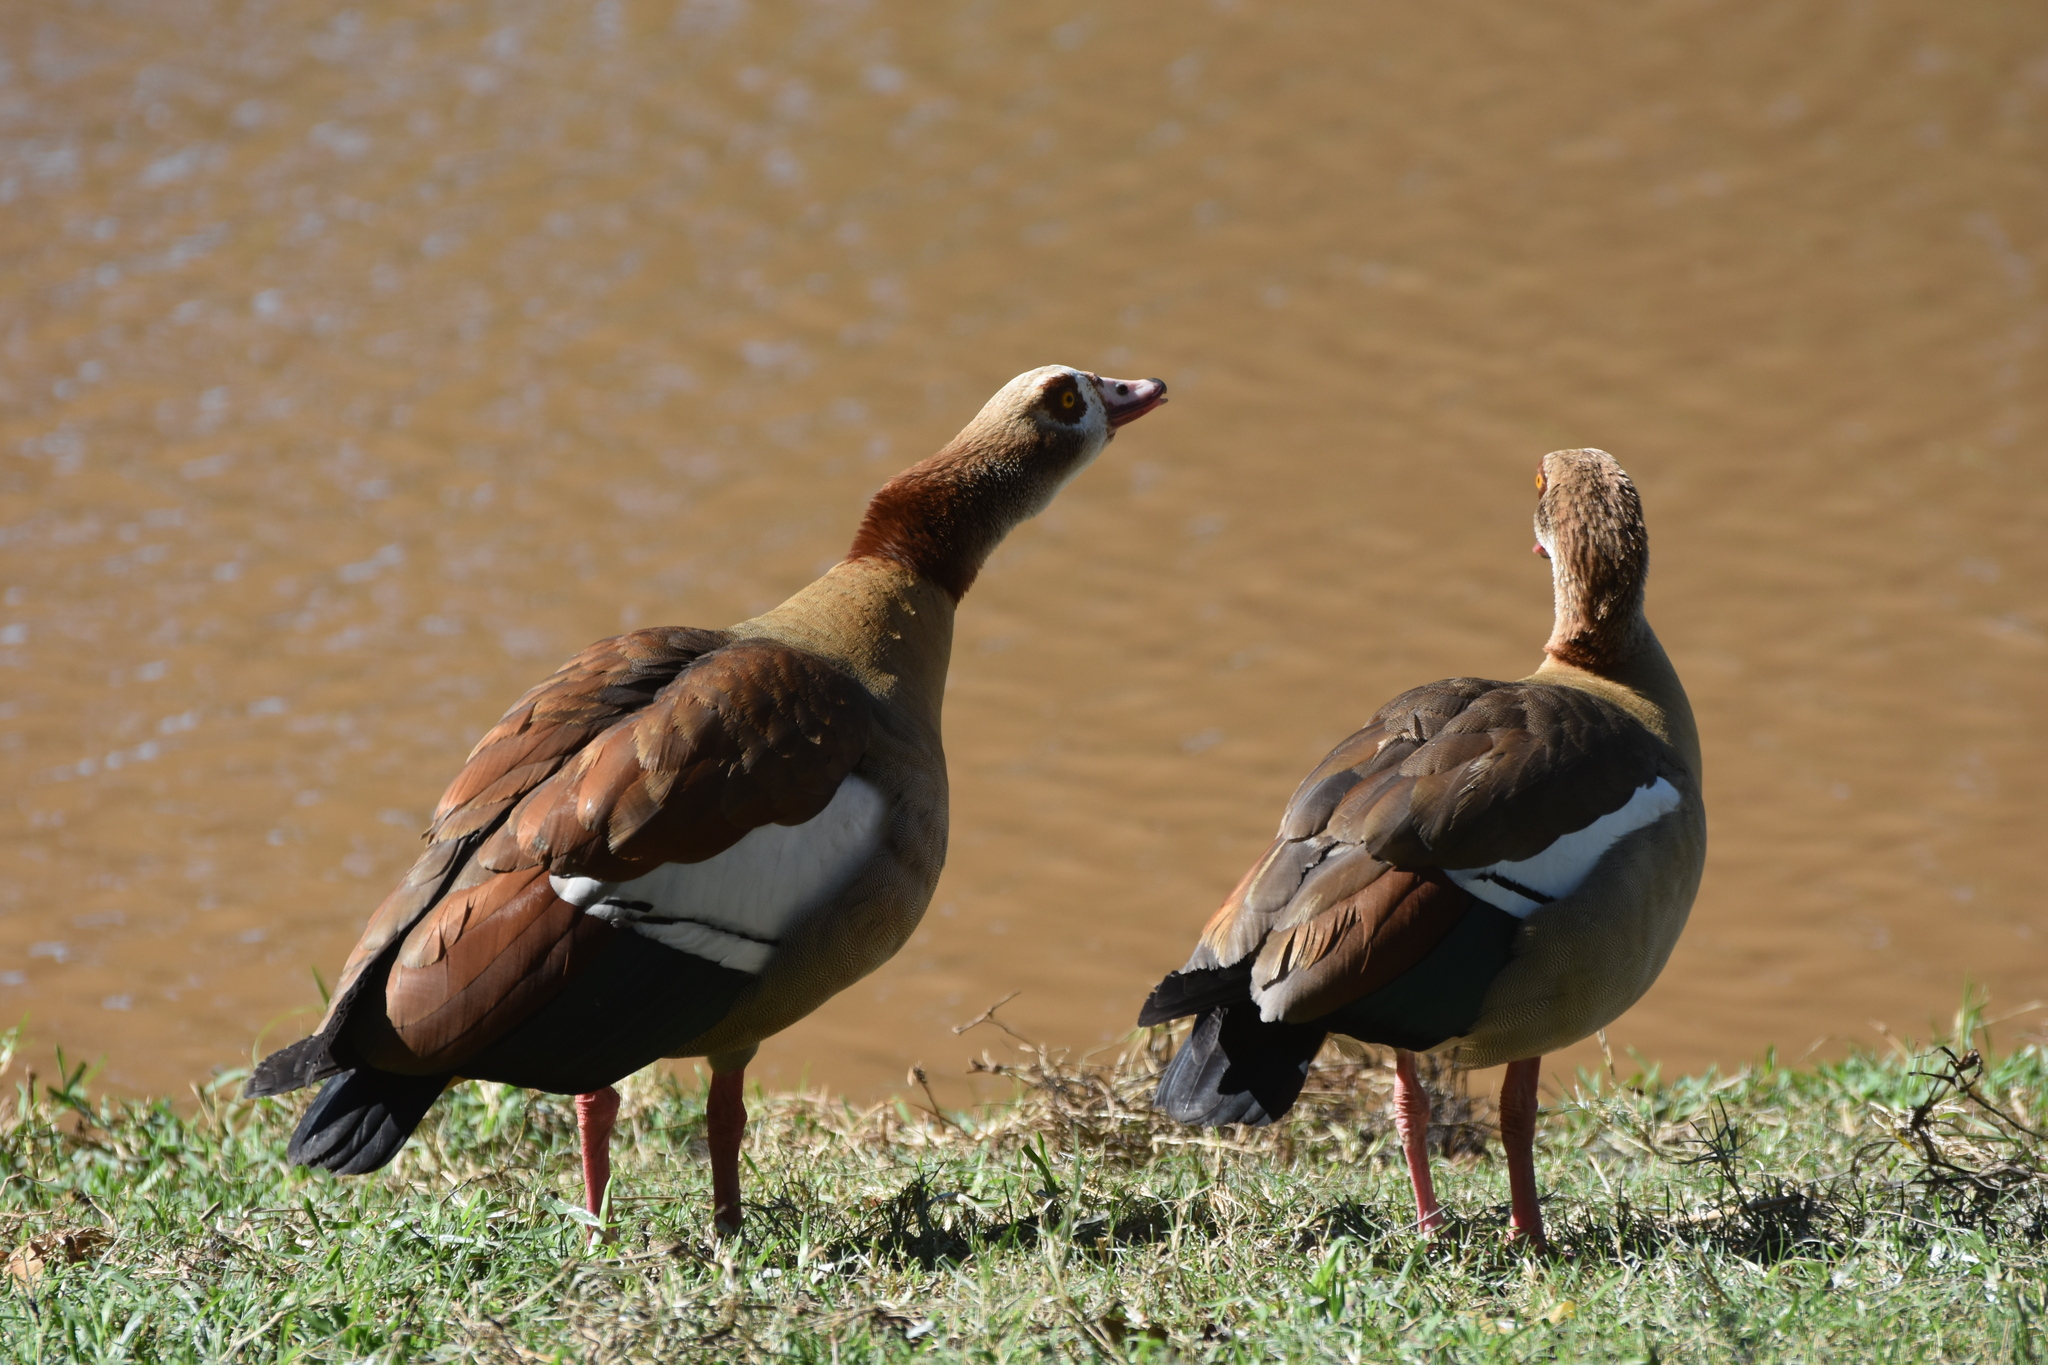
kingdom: Animalia
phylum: Chordata
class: Aves
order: Anseriformes
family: Anatidae
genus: Alopochen
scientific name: Alopochen aegyptiaca
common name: Egyptian goose
